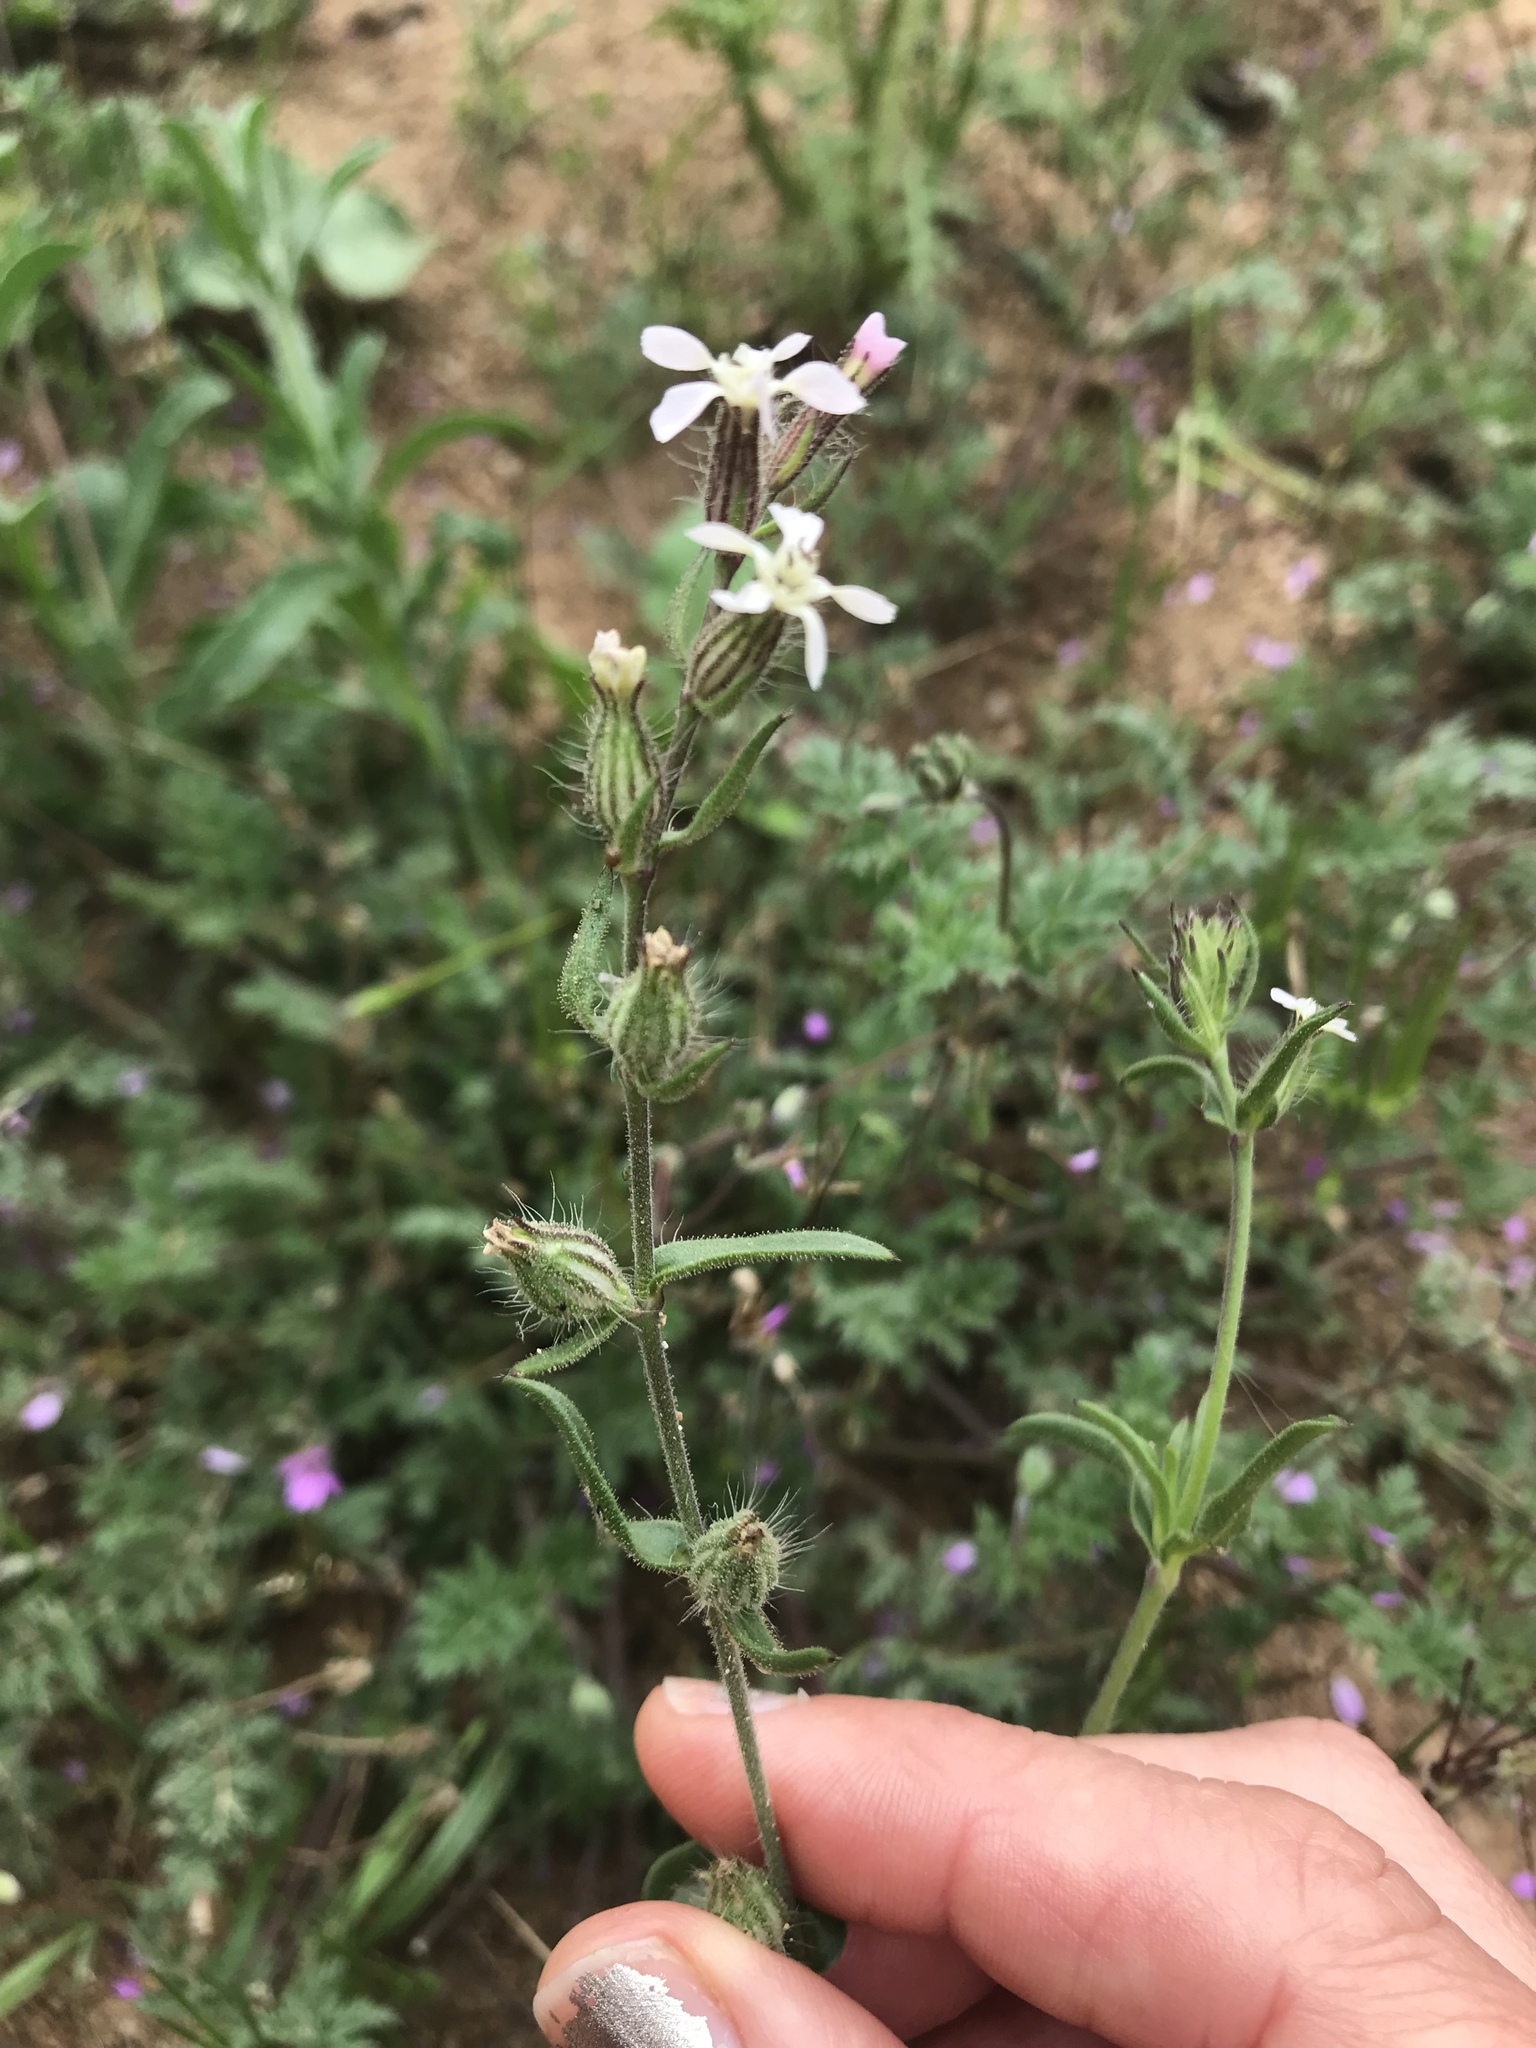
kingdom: Plantae
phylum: Tracheophyta
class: Magnoliopsida
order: Caryophyllales
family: Caryophyllaceae
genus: Silene
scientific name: Silene gallica
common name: Small-flowered catchfly
